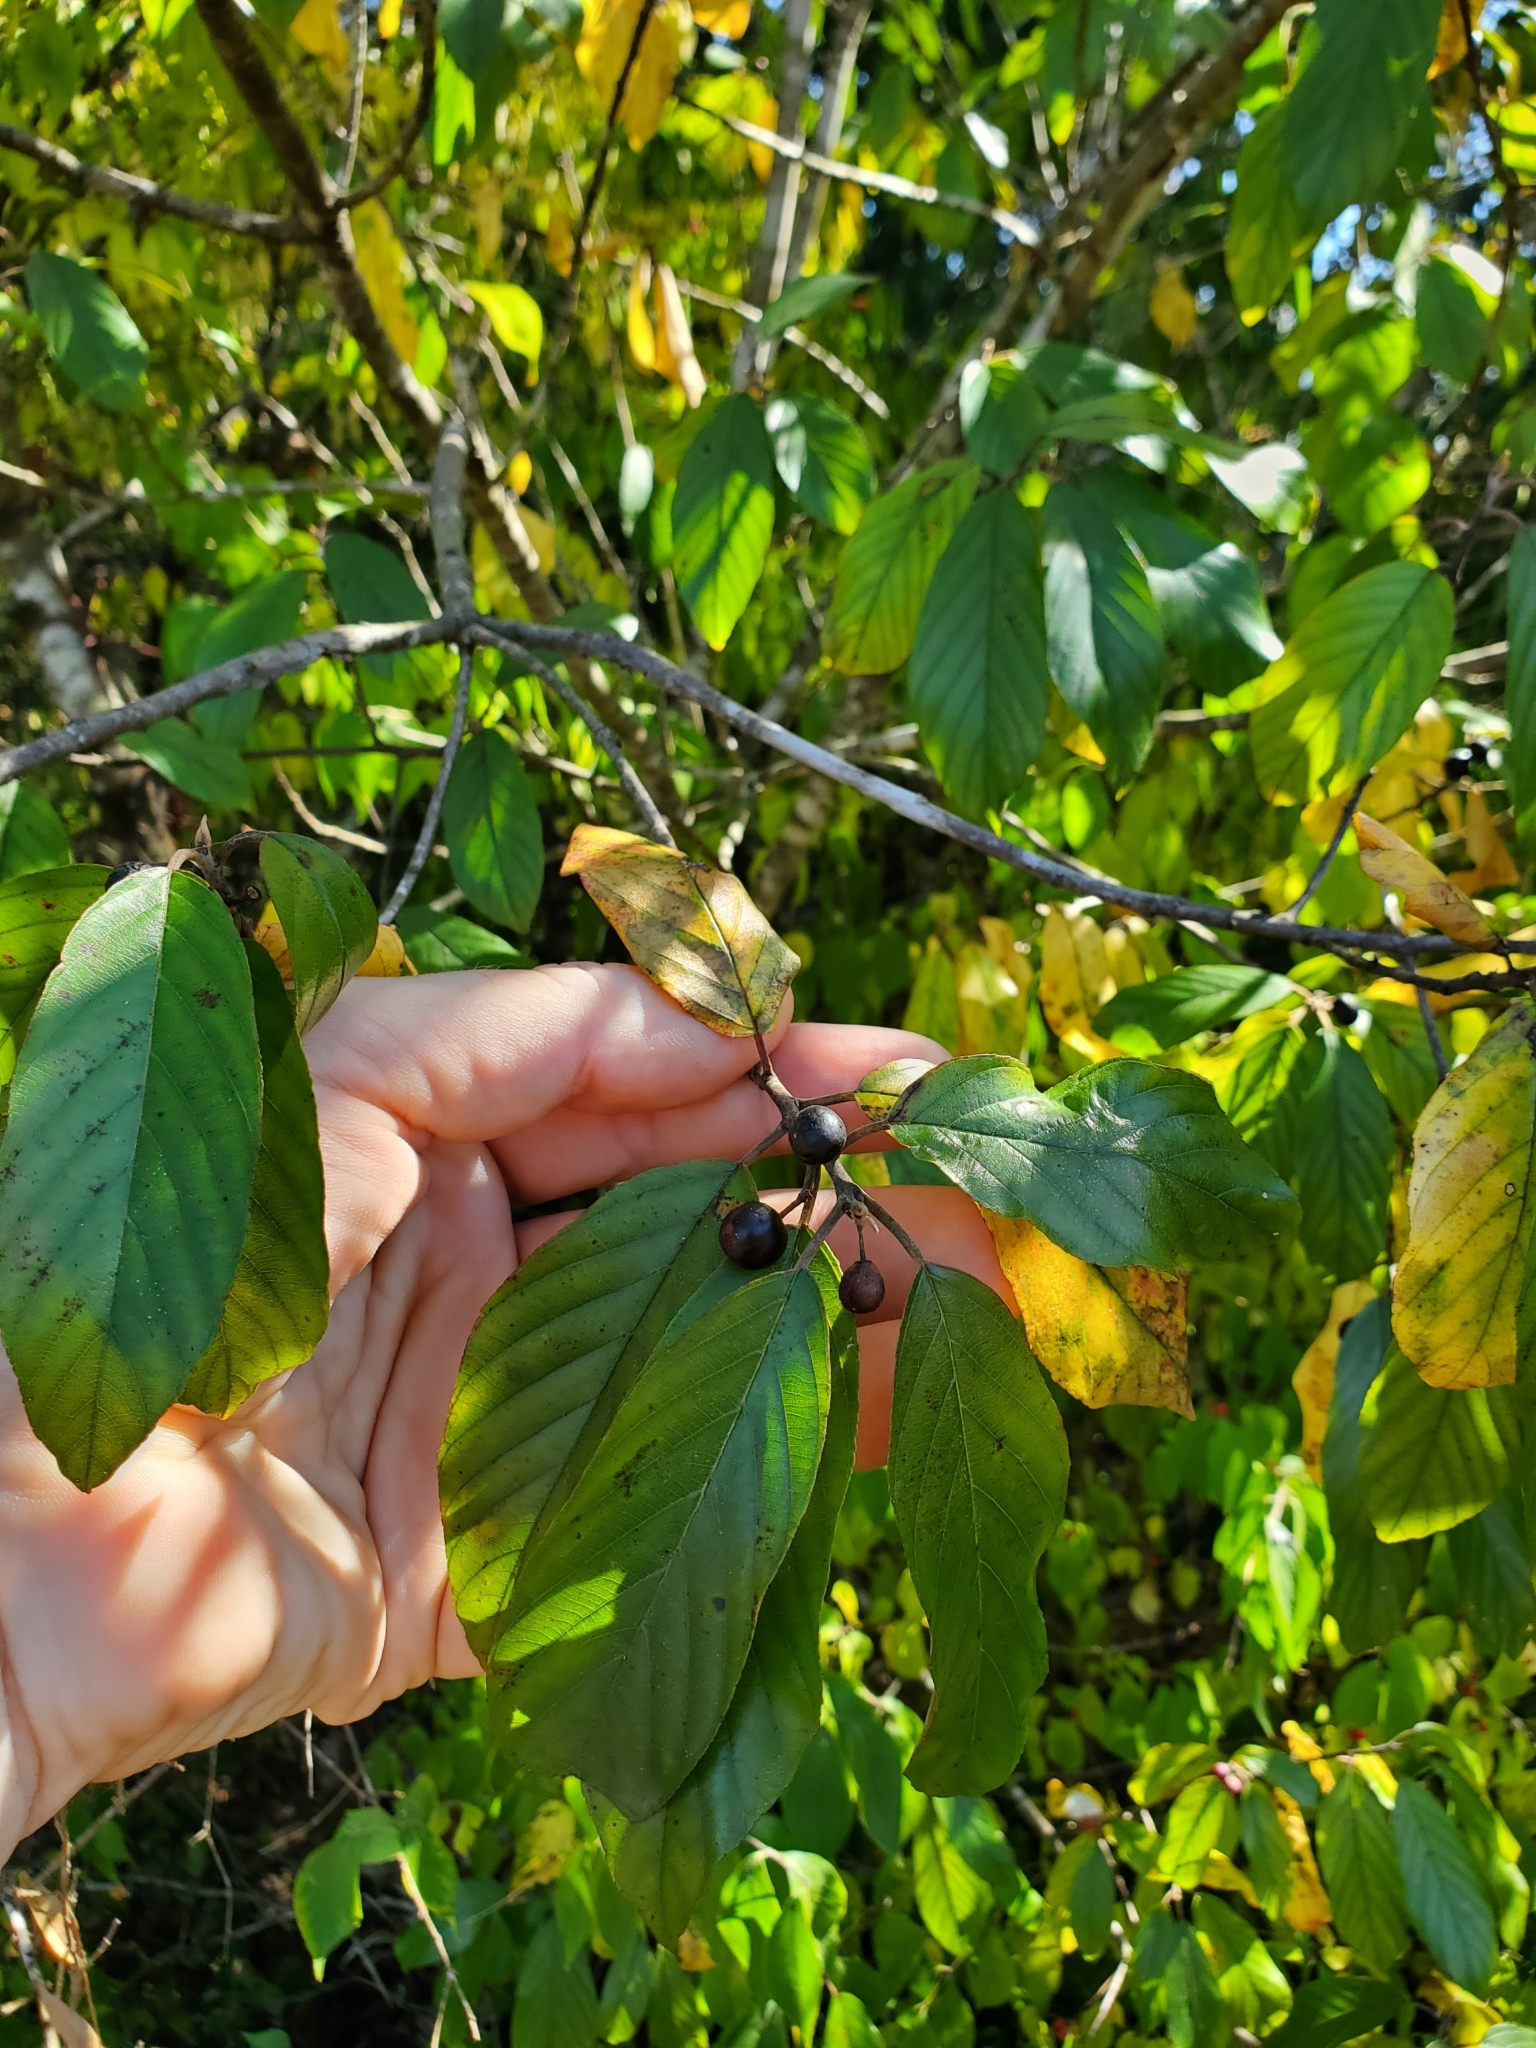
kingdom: Plantae
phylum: Tracheophyta
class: Magnoliopsida
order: Rosales
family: Rhamnaceae
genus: Frangula
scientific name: Frangula caroliniana
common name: Carolina buckthorn
